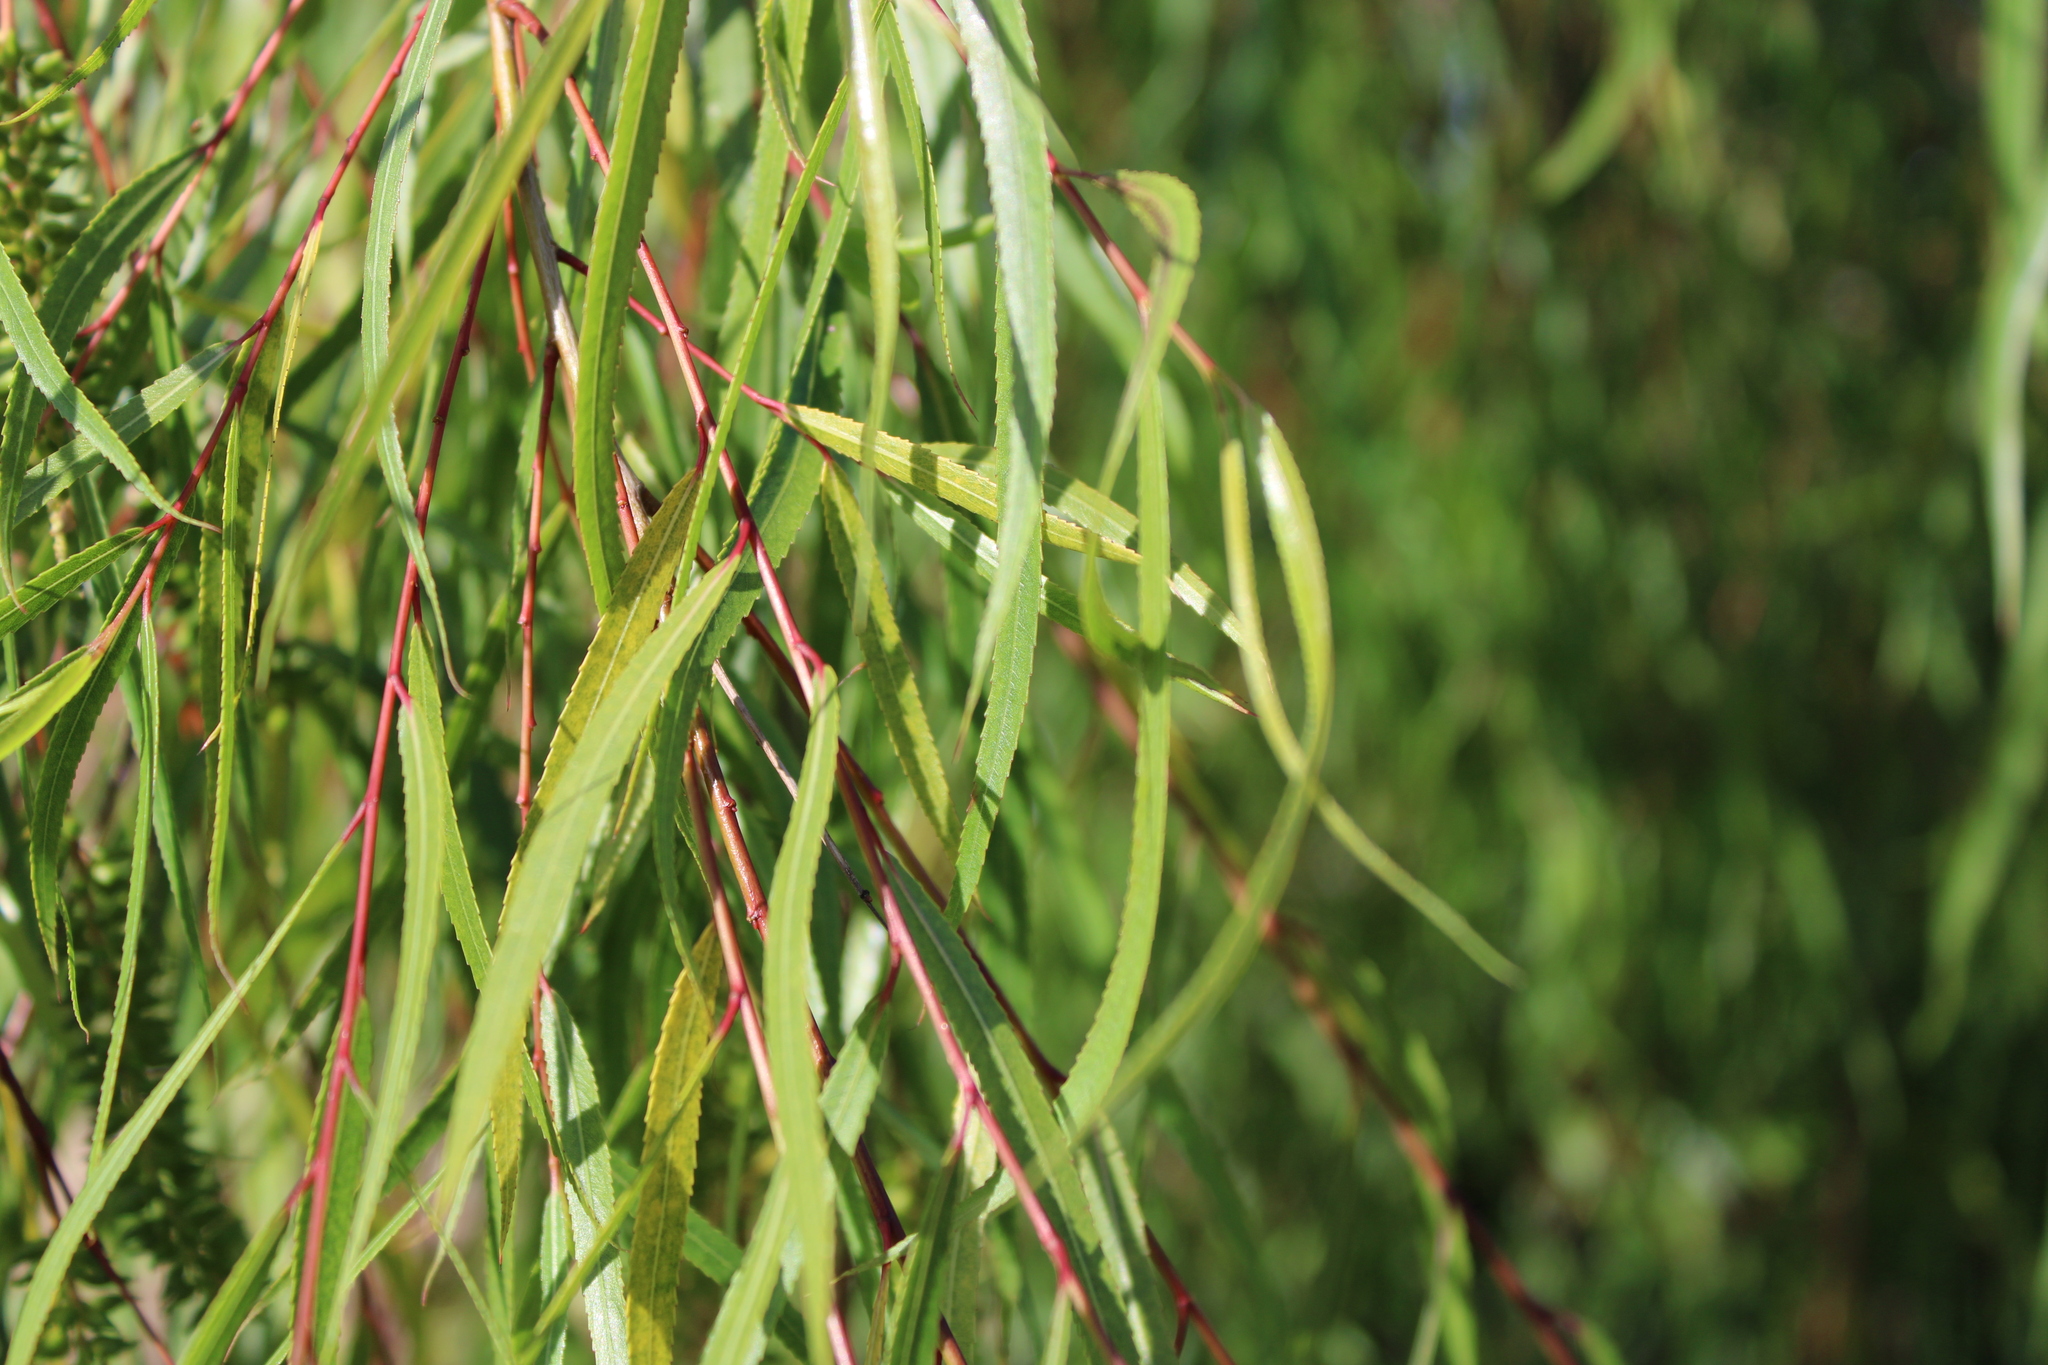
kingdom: Plantae
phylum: Tracheophyta
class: Magnoliopsida
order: Malpighiales
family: Salicaceae
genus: Salix
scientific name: Salix humboldtiana
